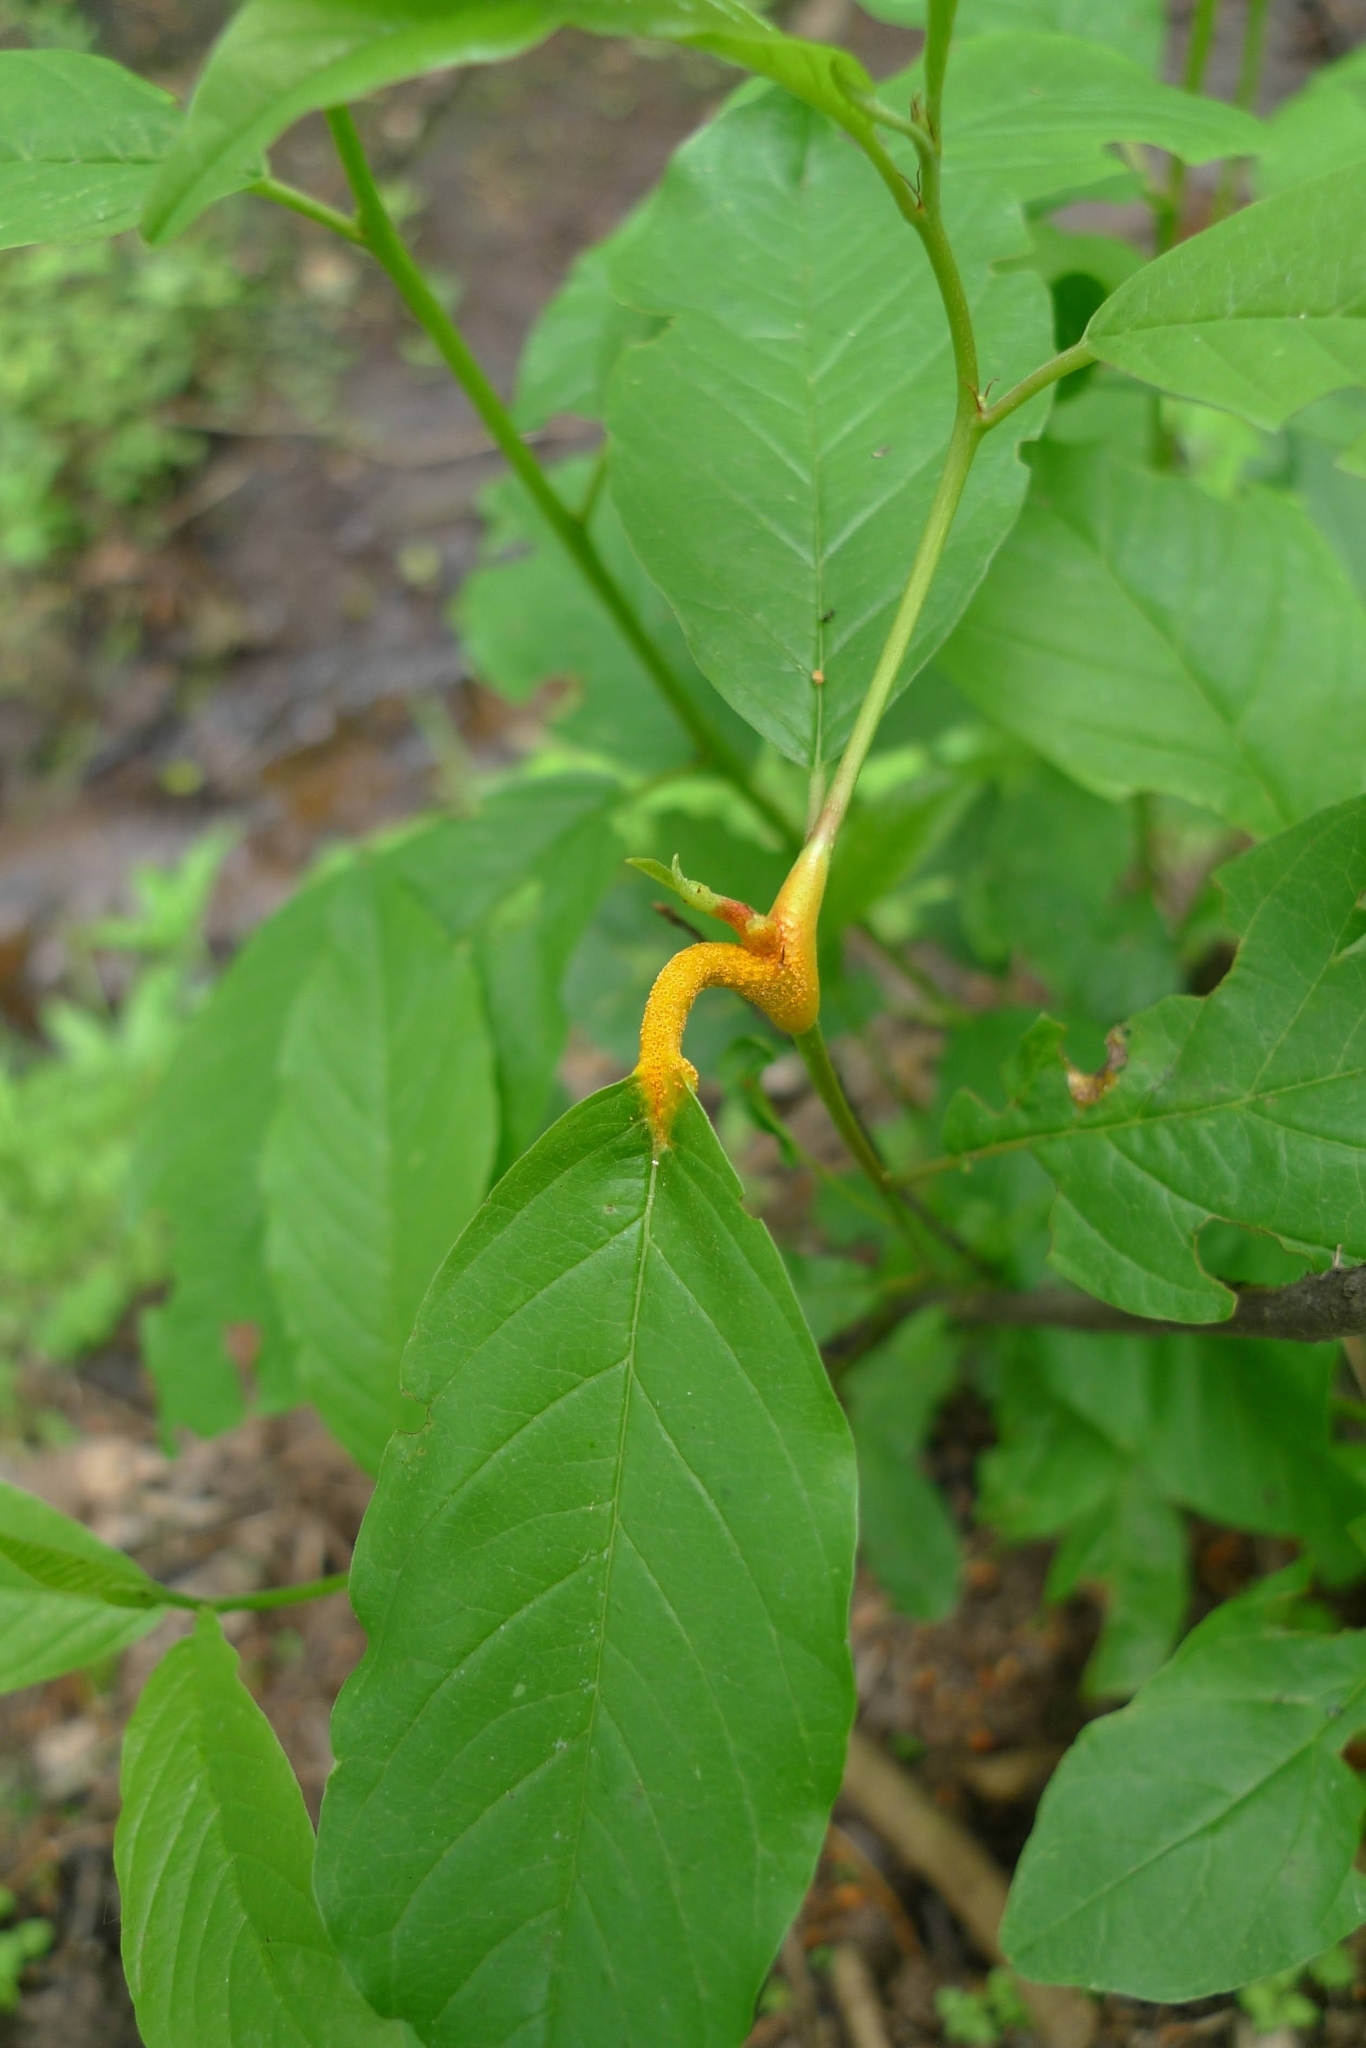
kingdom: Fungi
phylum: Basidiomycota
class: Pucciniomycetes
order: Pucciniales
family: Pucciniaceae
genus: Puccinia
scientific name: Puccinia coronata
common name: Crown rust
